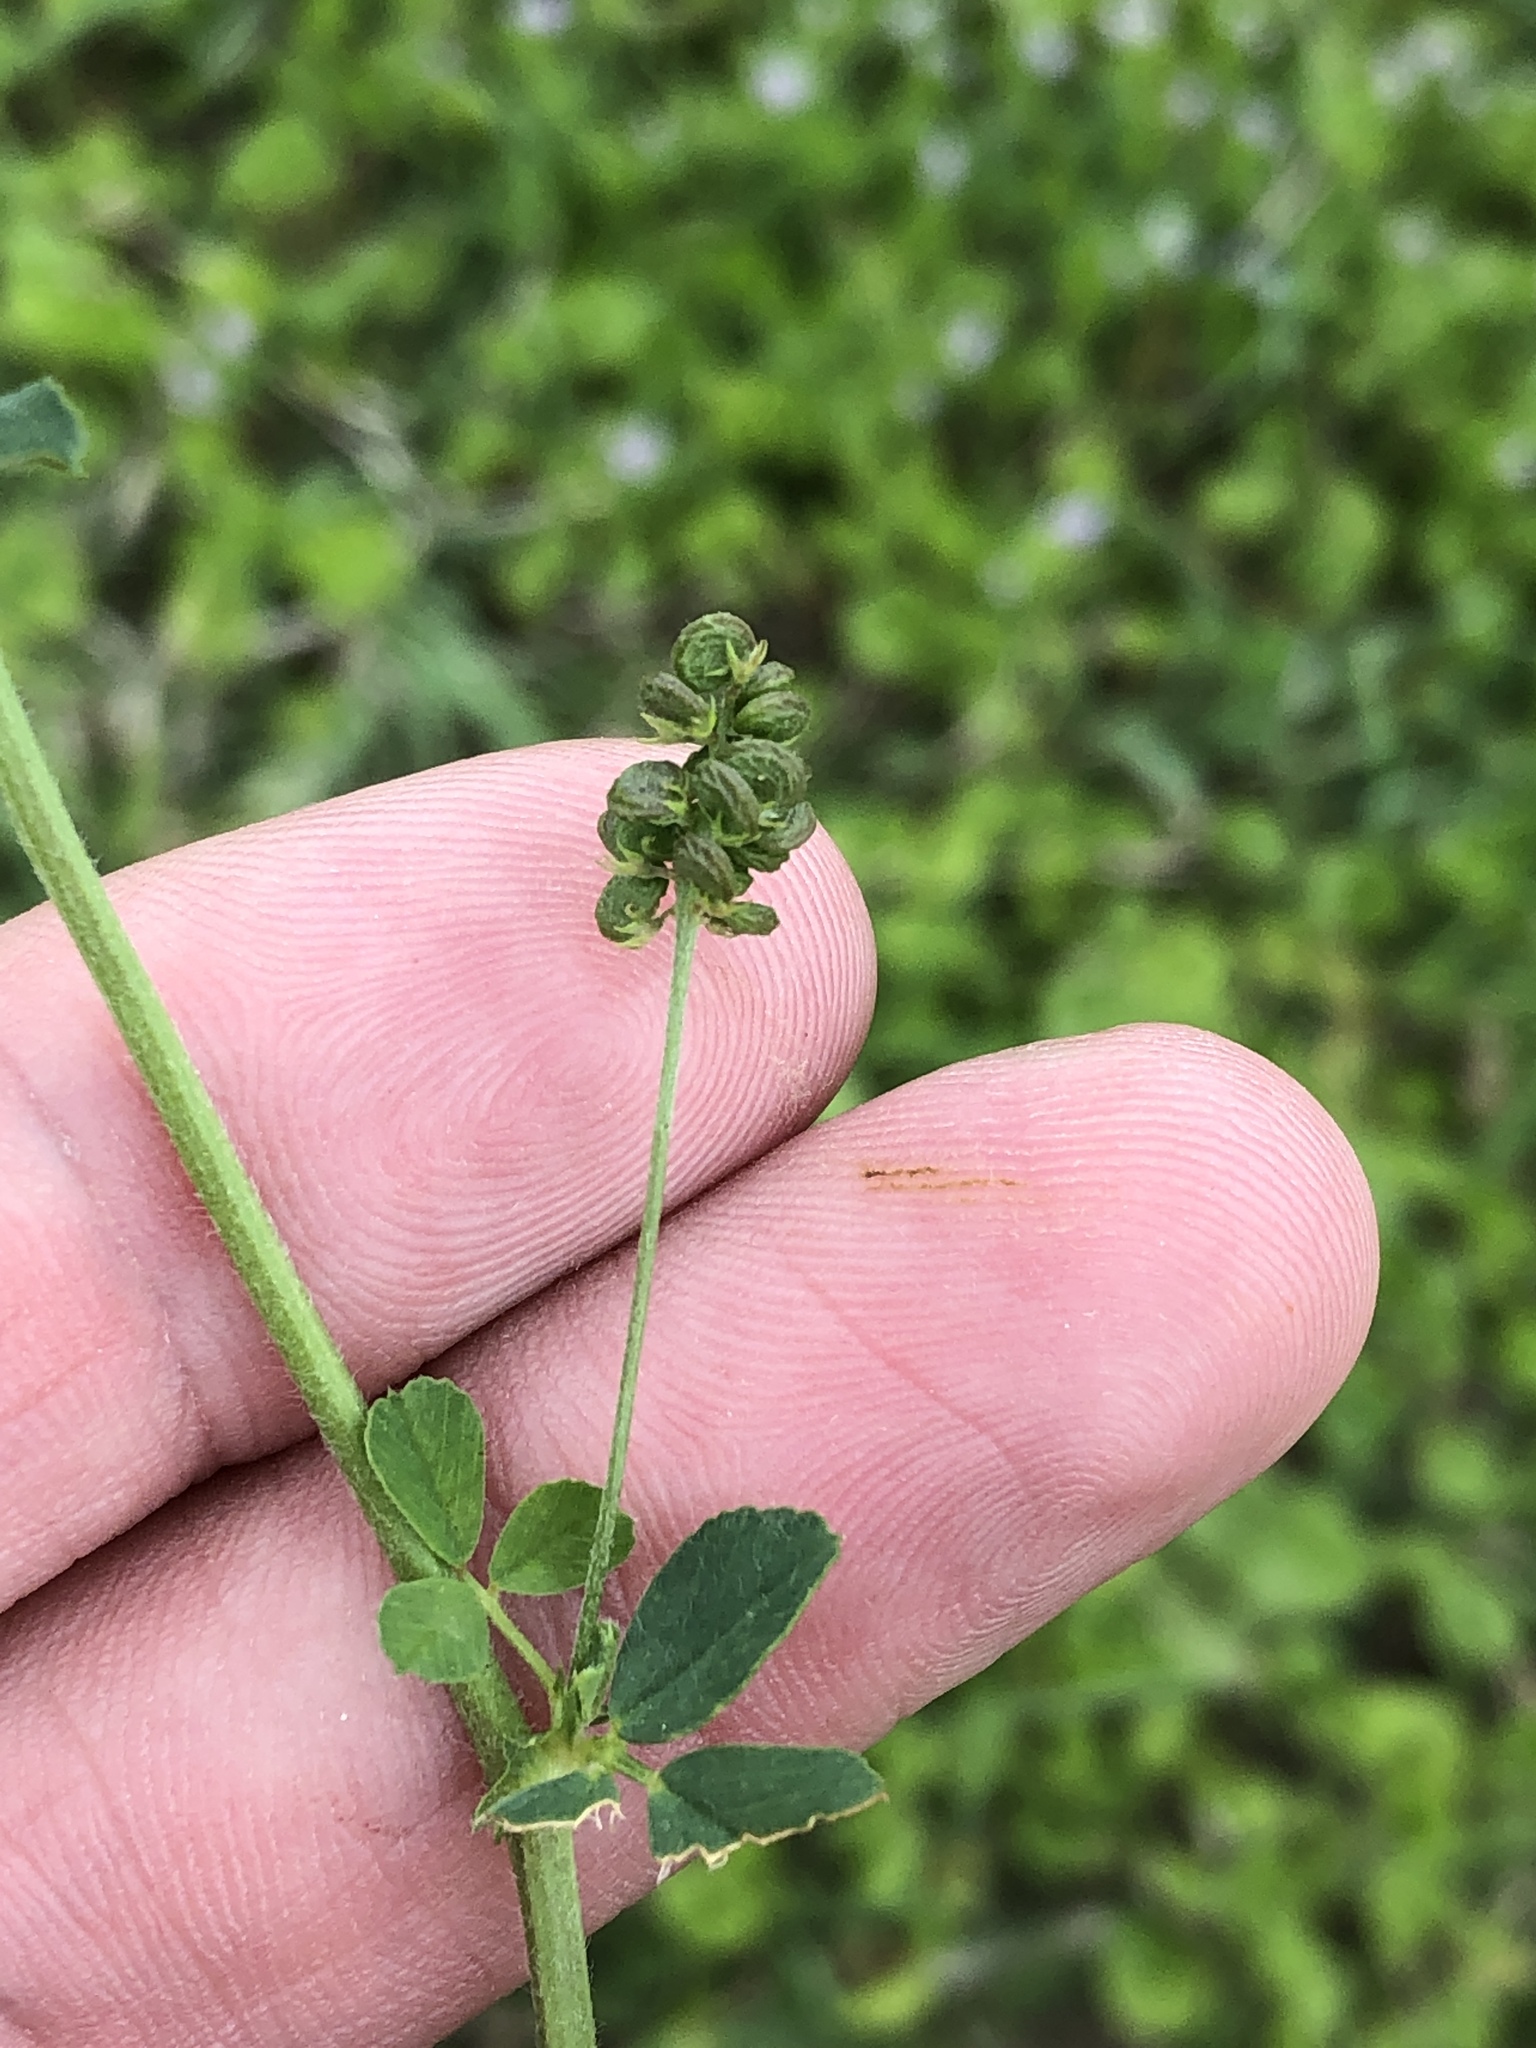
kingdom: Plantae
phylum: Tracheophyta
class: Magnoliopsida
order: Fabales
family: Fabaceae
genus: Medicago
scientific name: Medicago lupulina
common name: Black medick
